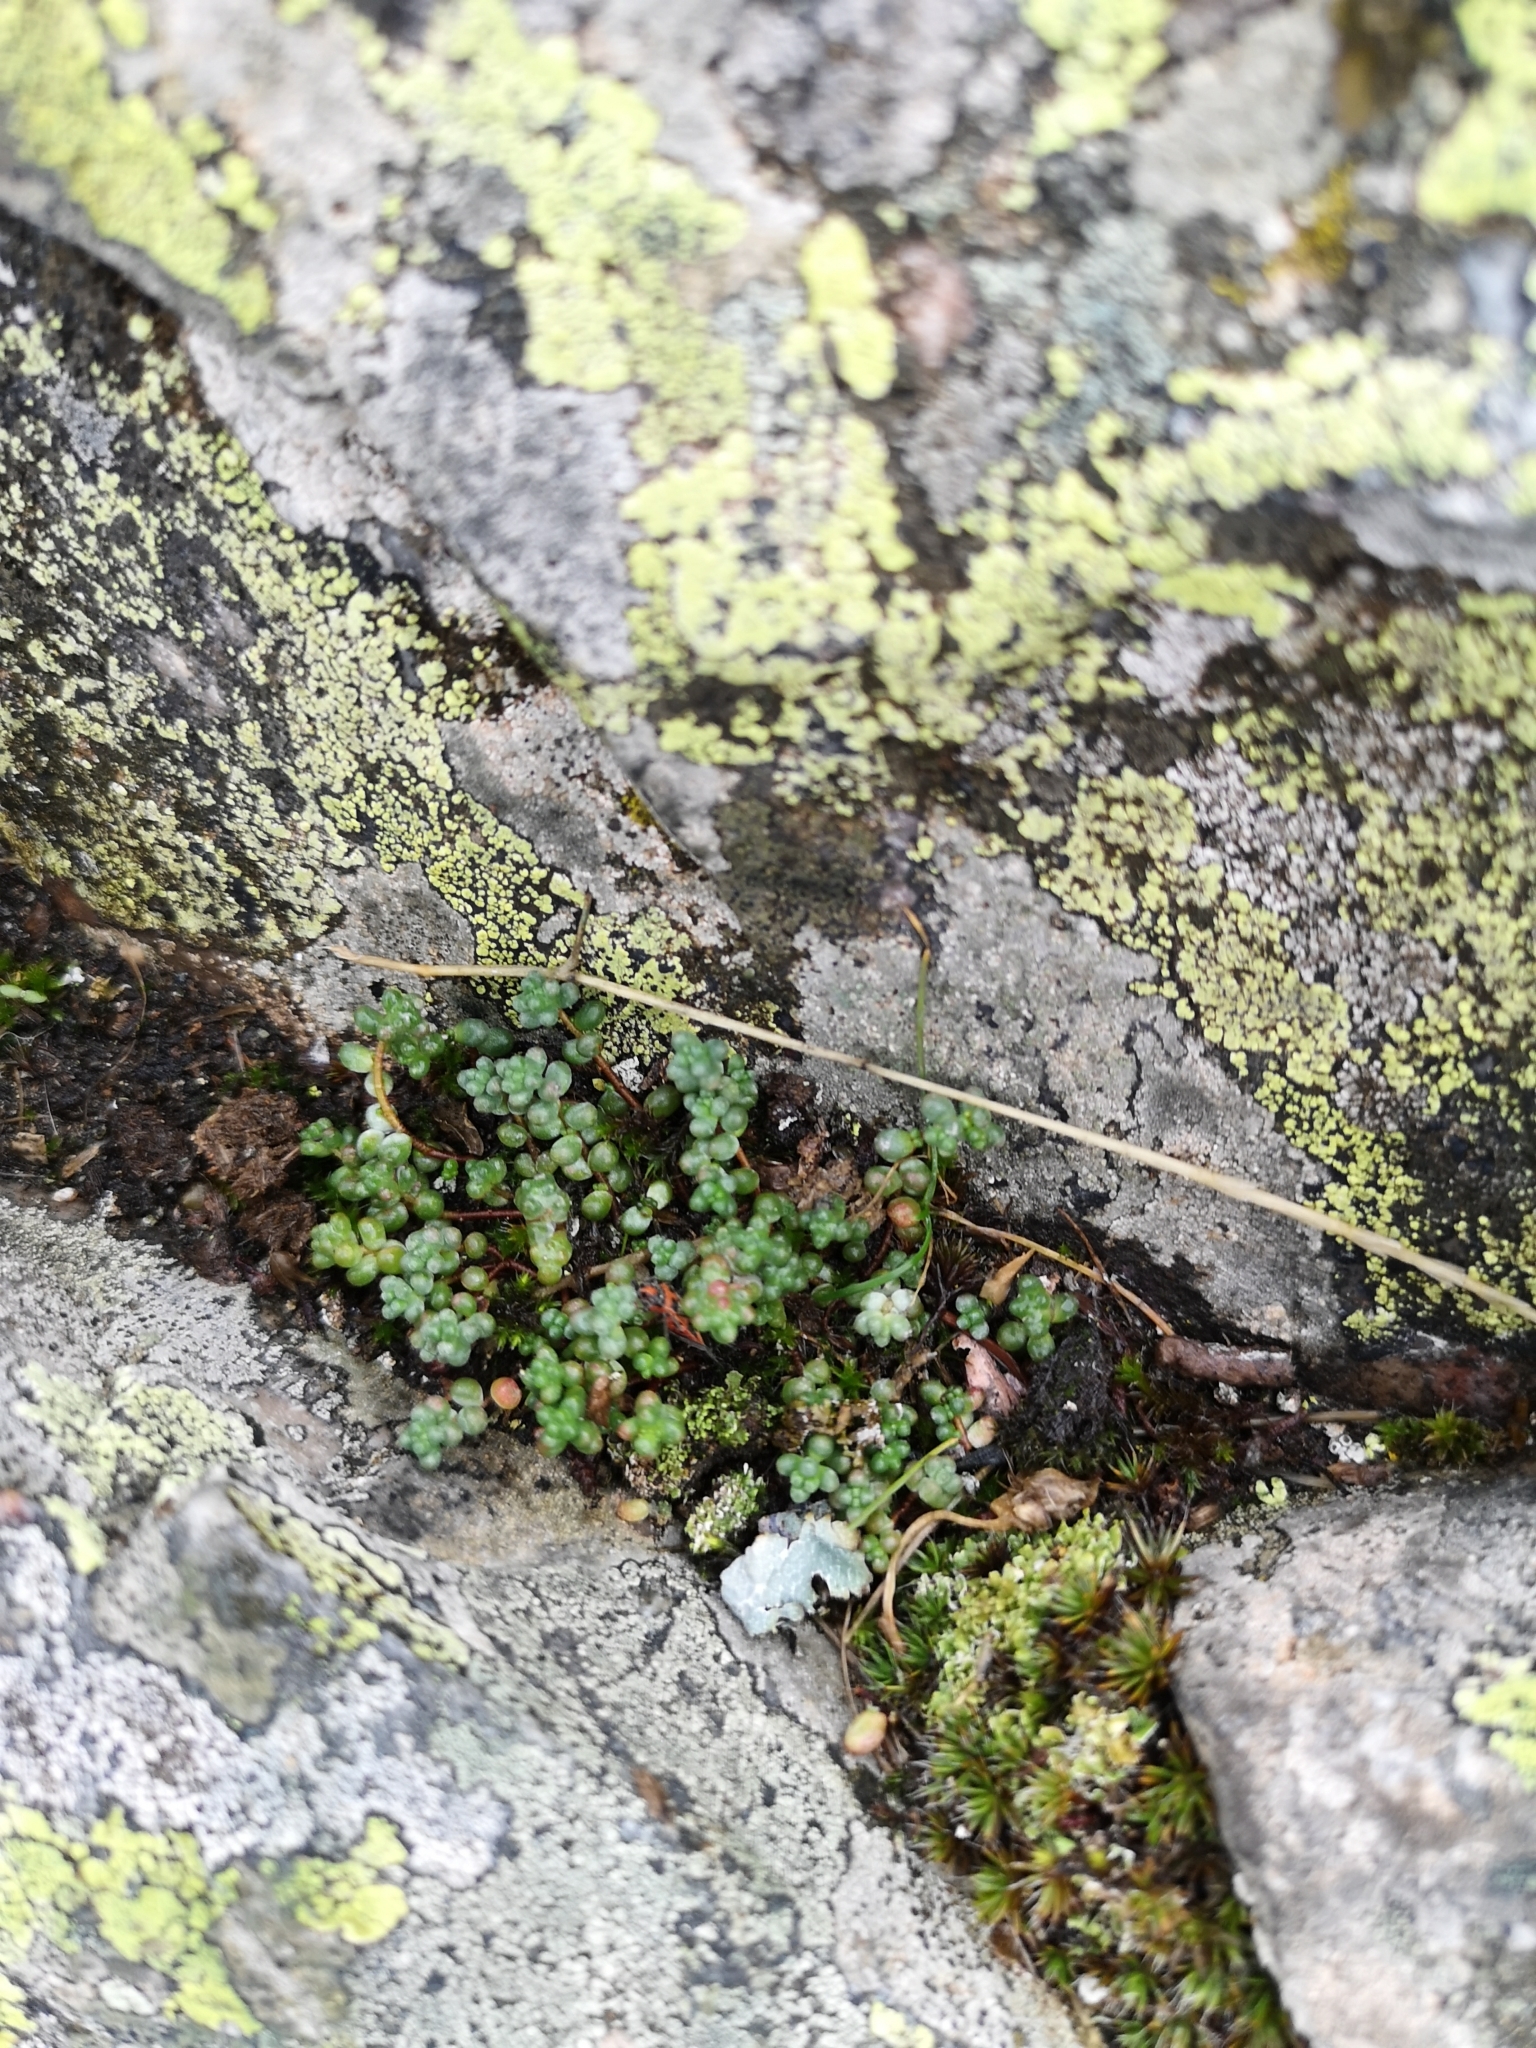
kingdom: Plantae
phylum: Tracheophyta
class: Magnoliopsida
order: Saxifragales
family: Crassulaceae
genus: Sedum
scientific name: Sedum brevifolium
